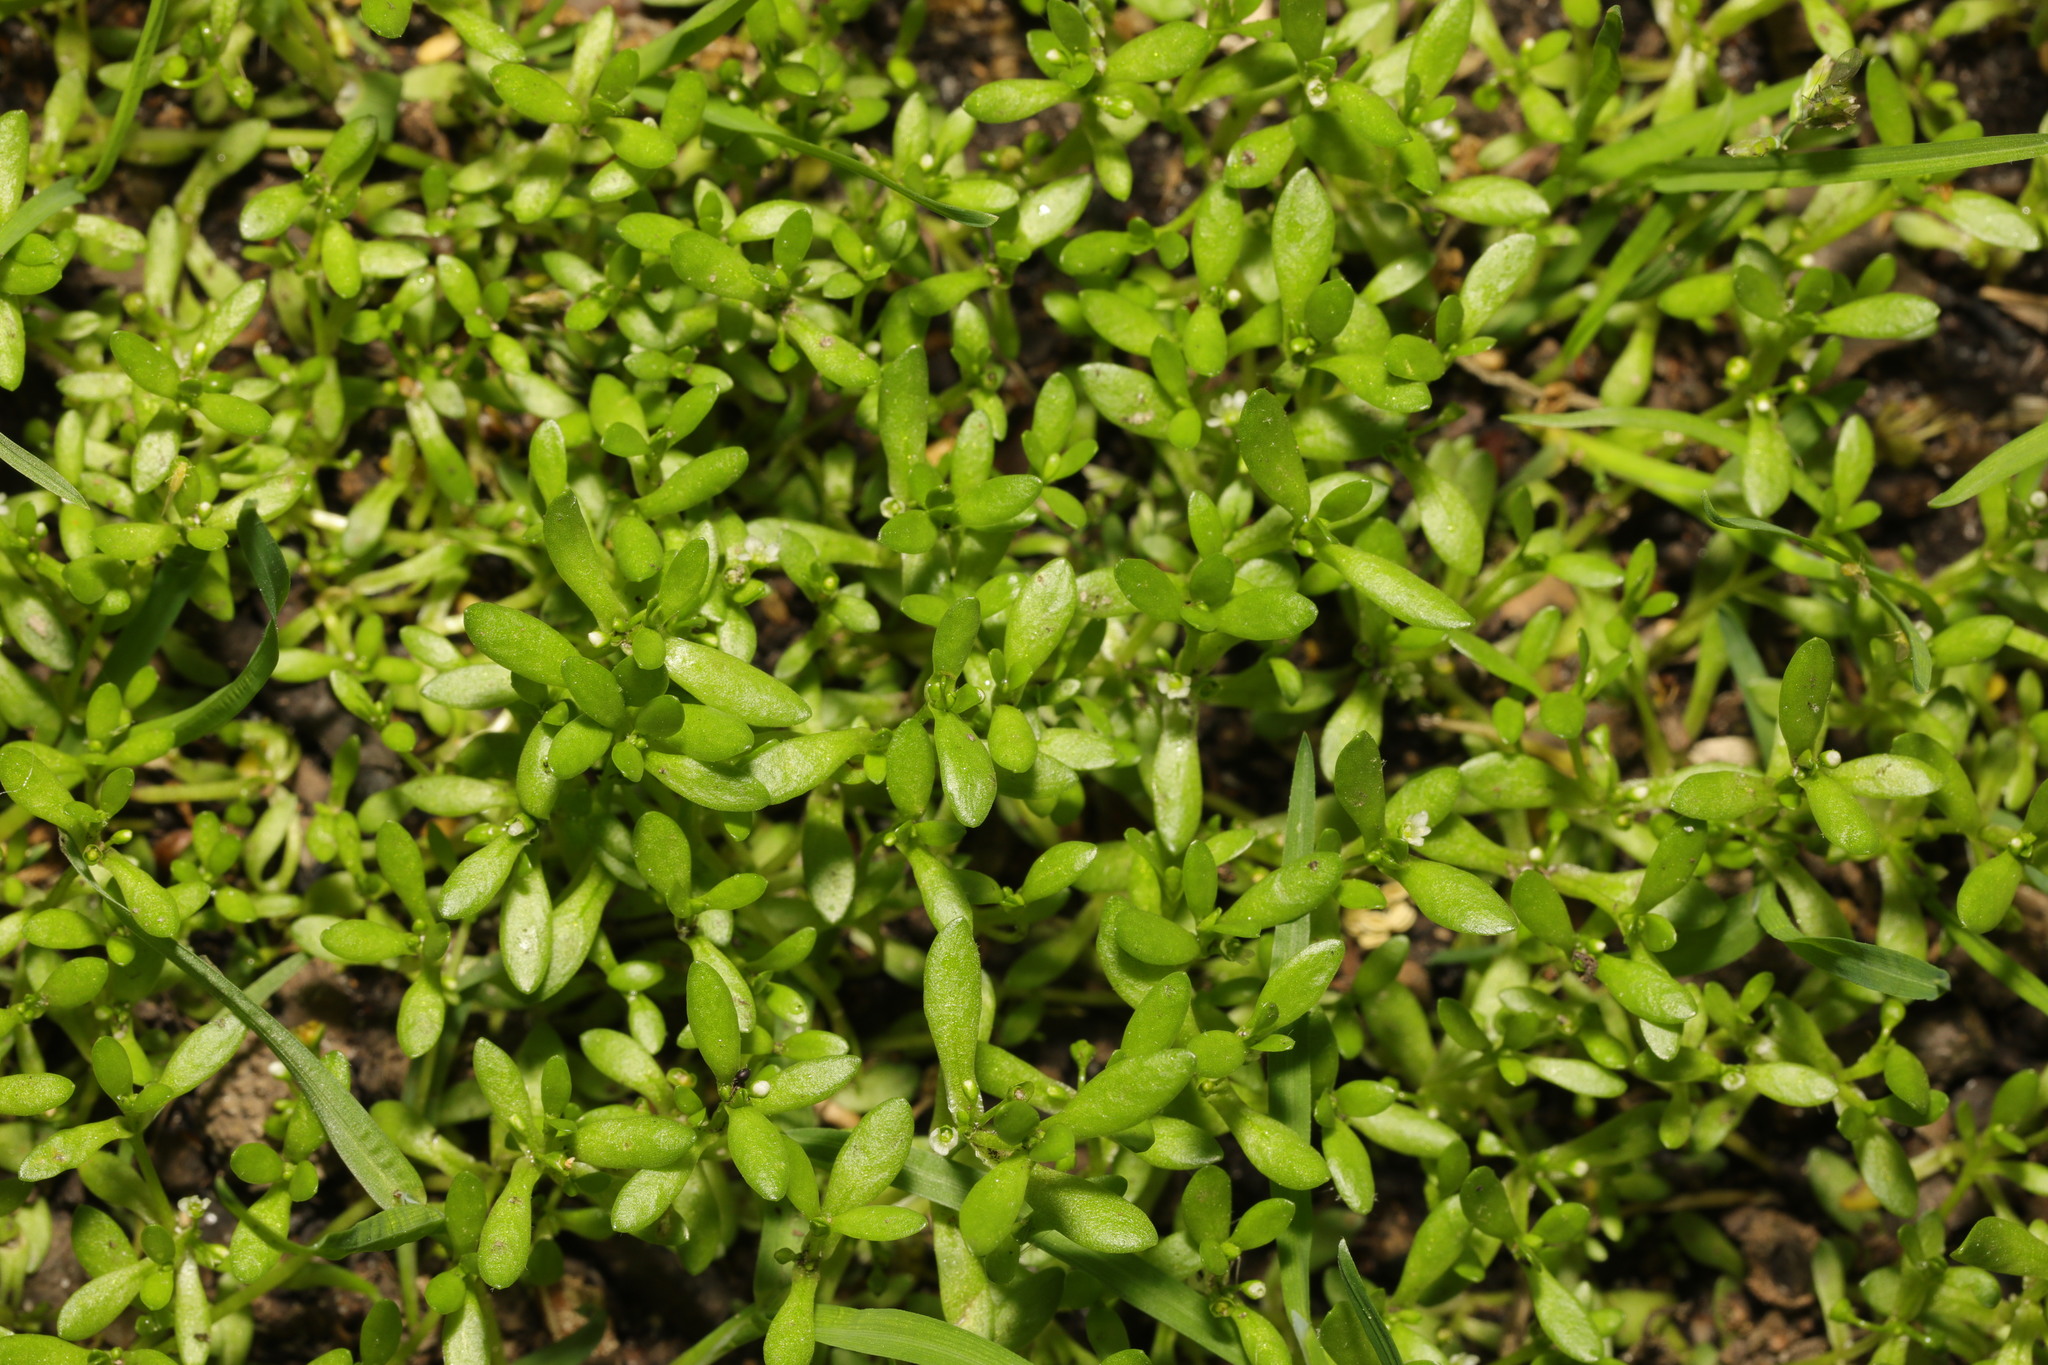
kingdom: Plantae
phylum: Tracheophyta
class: Magnoliopsida
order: Caryophyllales
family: Montiaceae
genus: Montia
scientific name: Montia fontana
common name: Blinks
